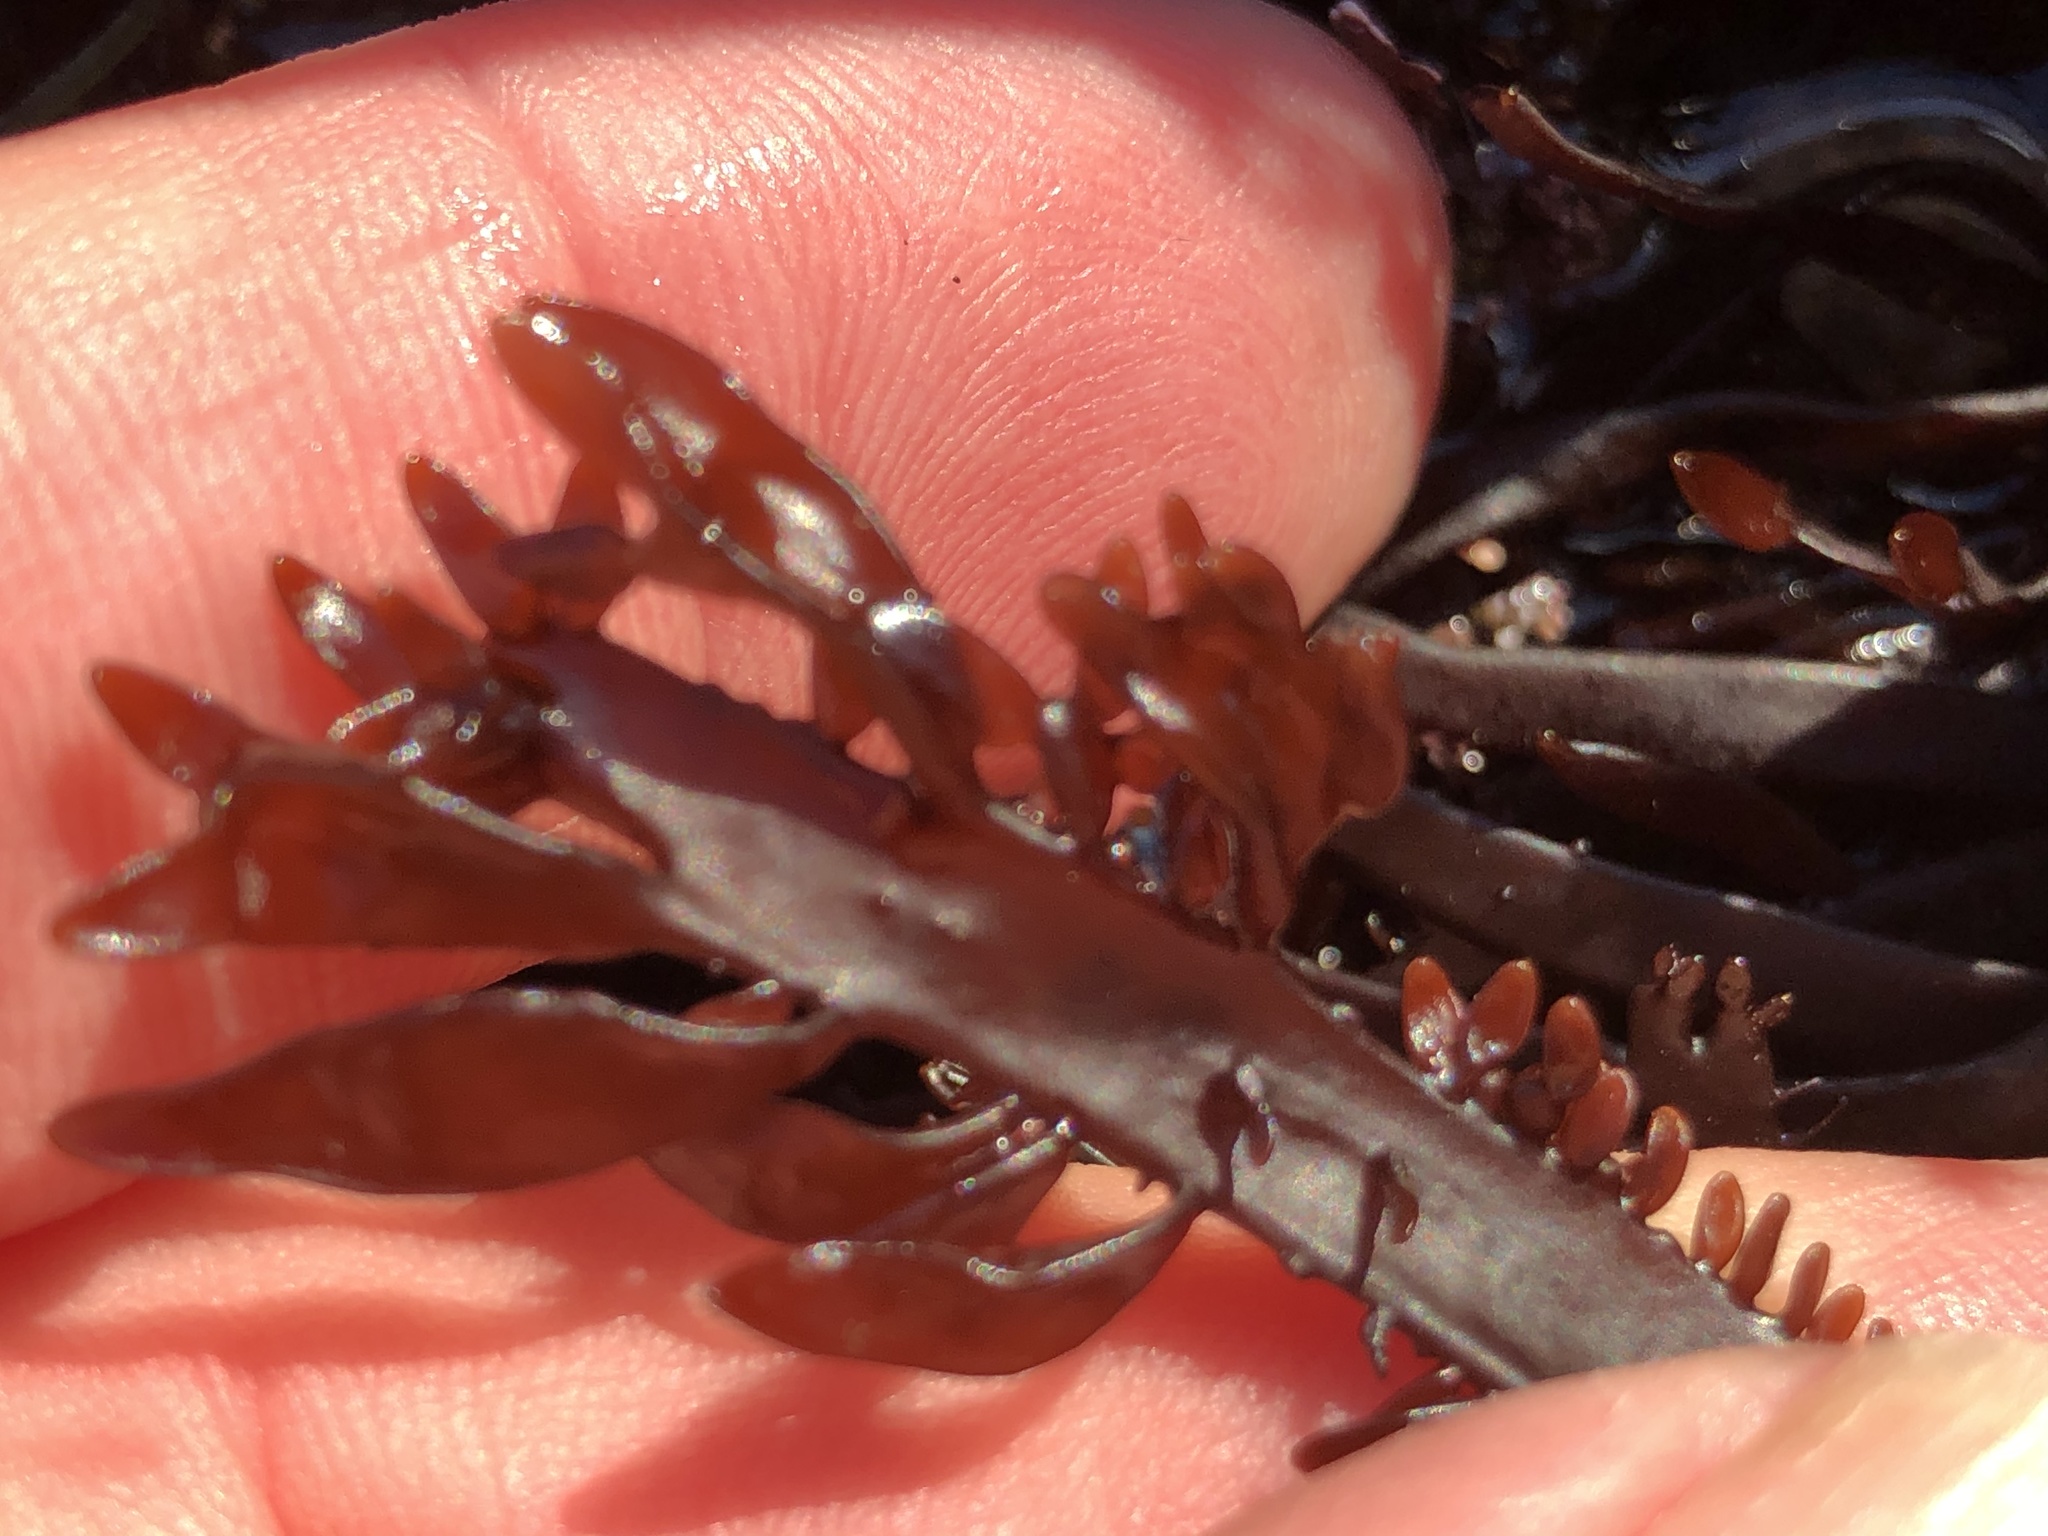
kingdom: Plantae
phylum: Rhodophyta
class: Florideophyceae
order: Halymeniales
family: Halymeniaceae
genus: Grateloupia
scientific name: Grateloupia Prionitis lanceolata
